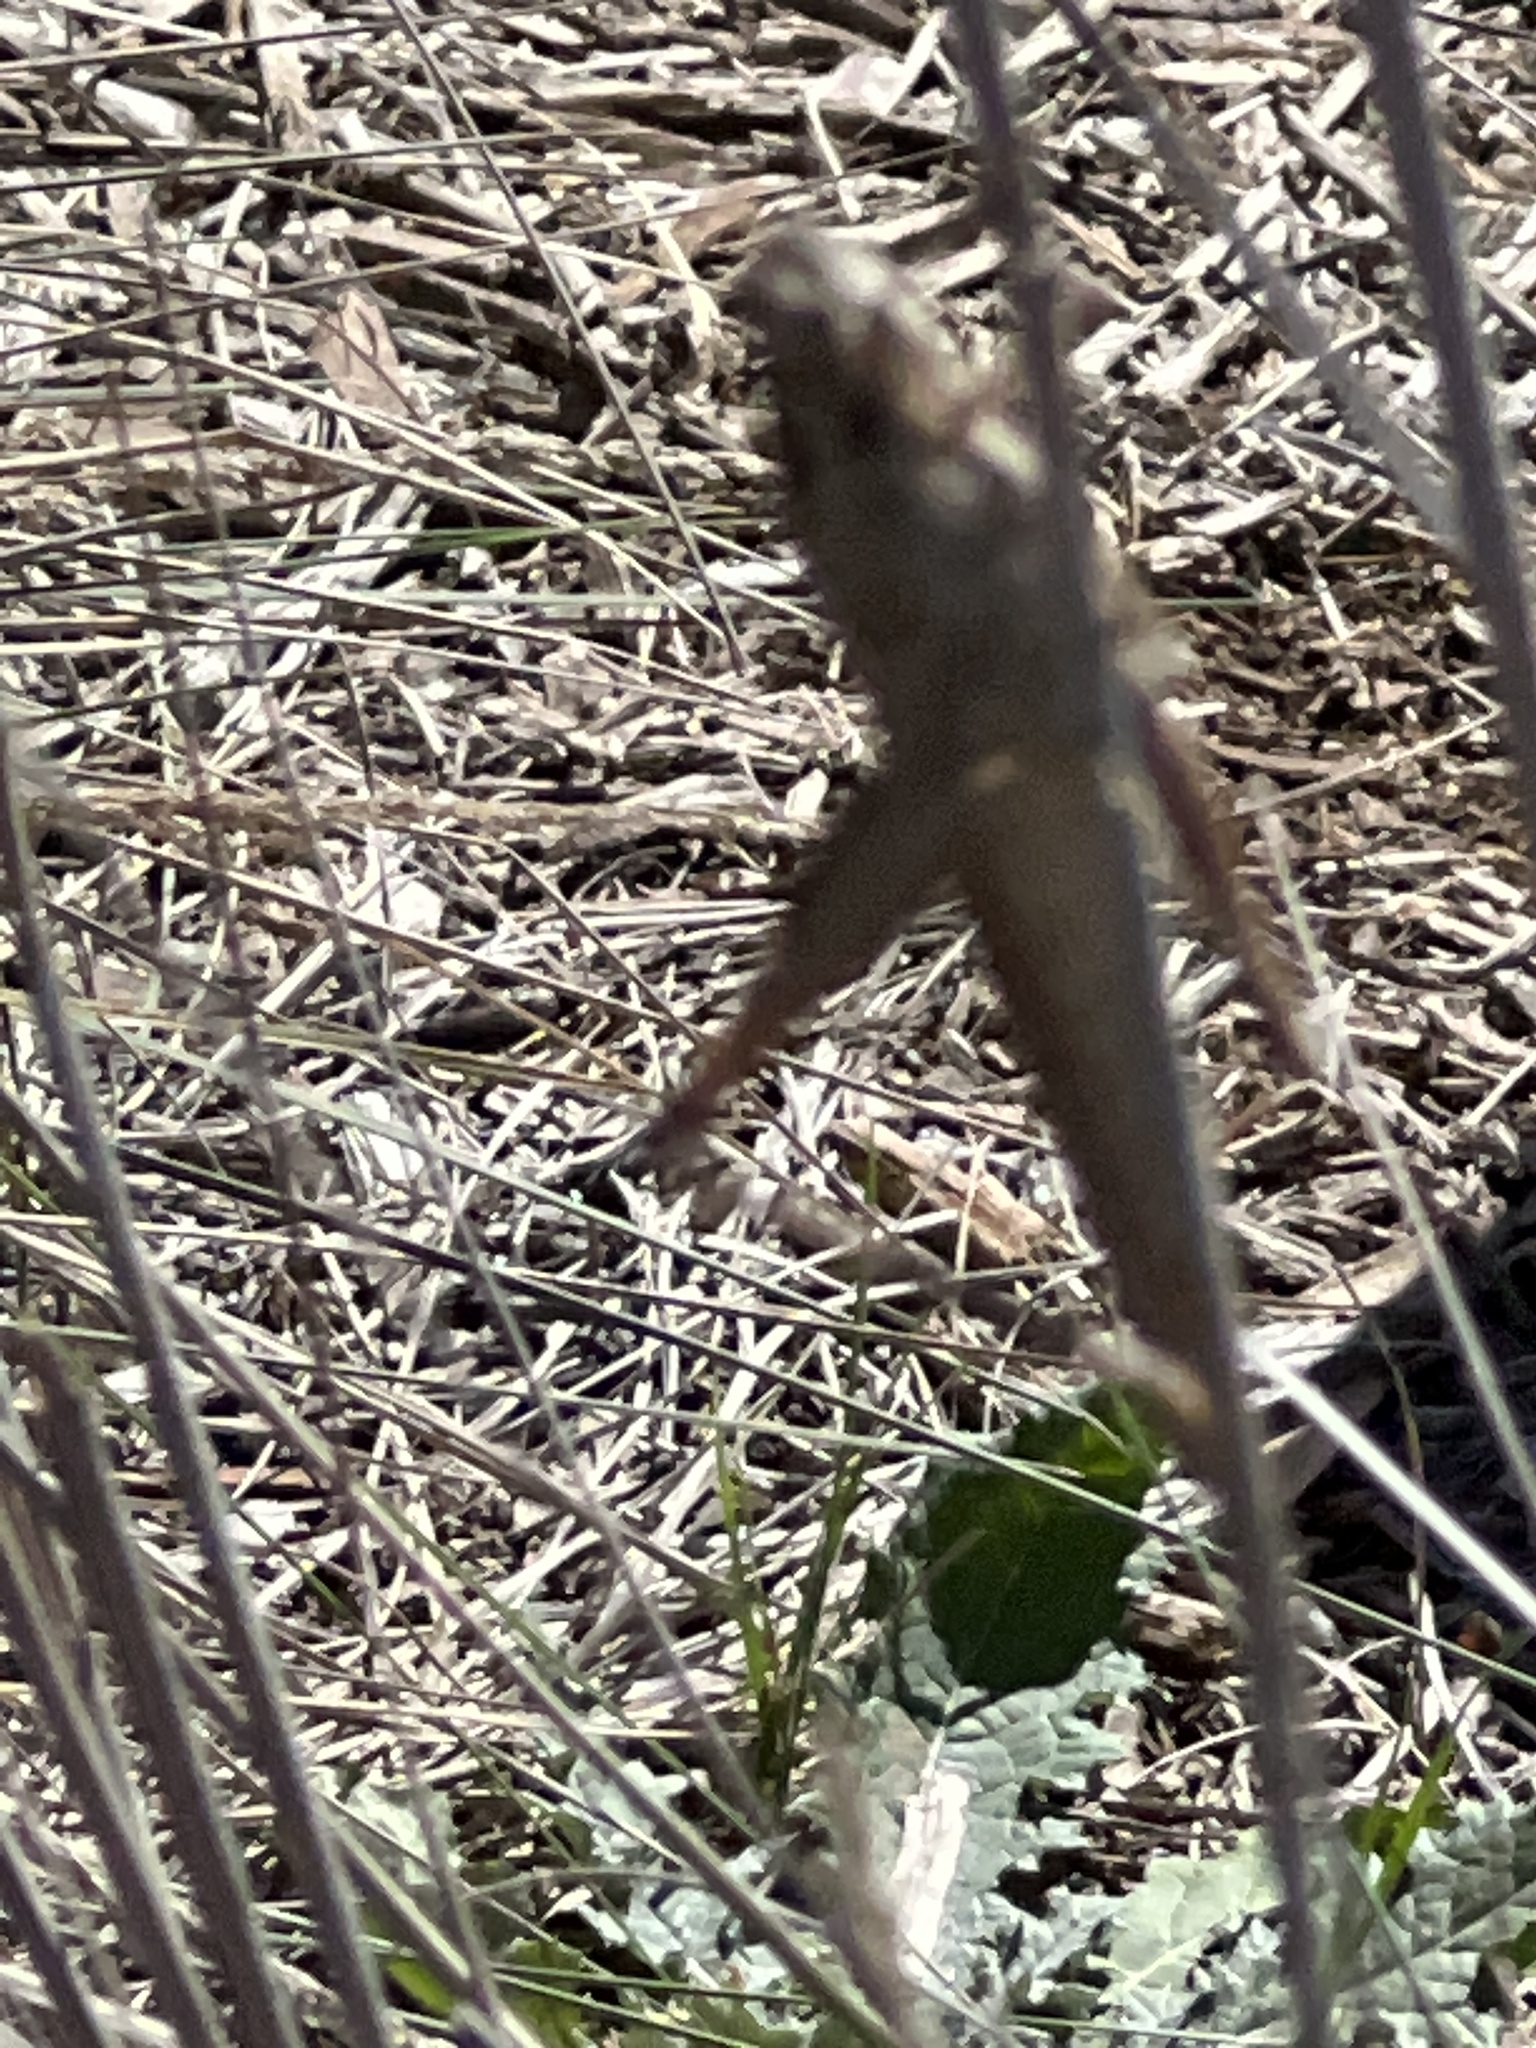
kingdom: Animalia
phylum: Arthropoda
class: Insecta
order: Orthoptera
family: Acrididae
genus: Schistocerca
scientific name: Schistocerca nitens
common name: Vagrant grasshopper
